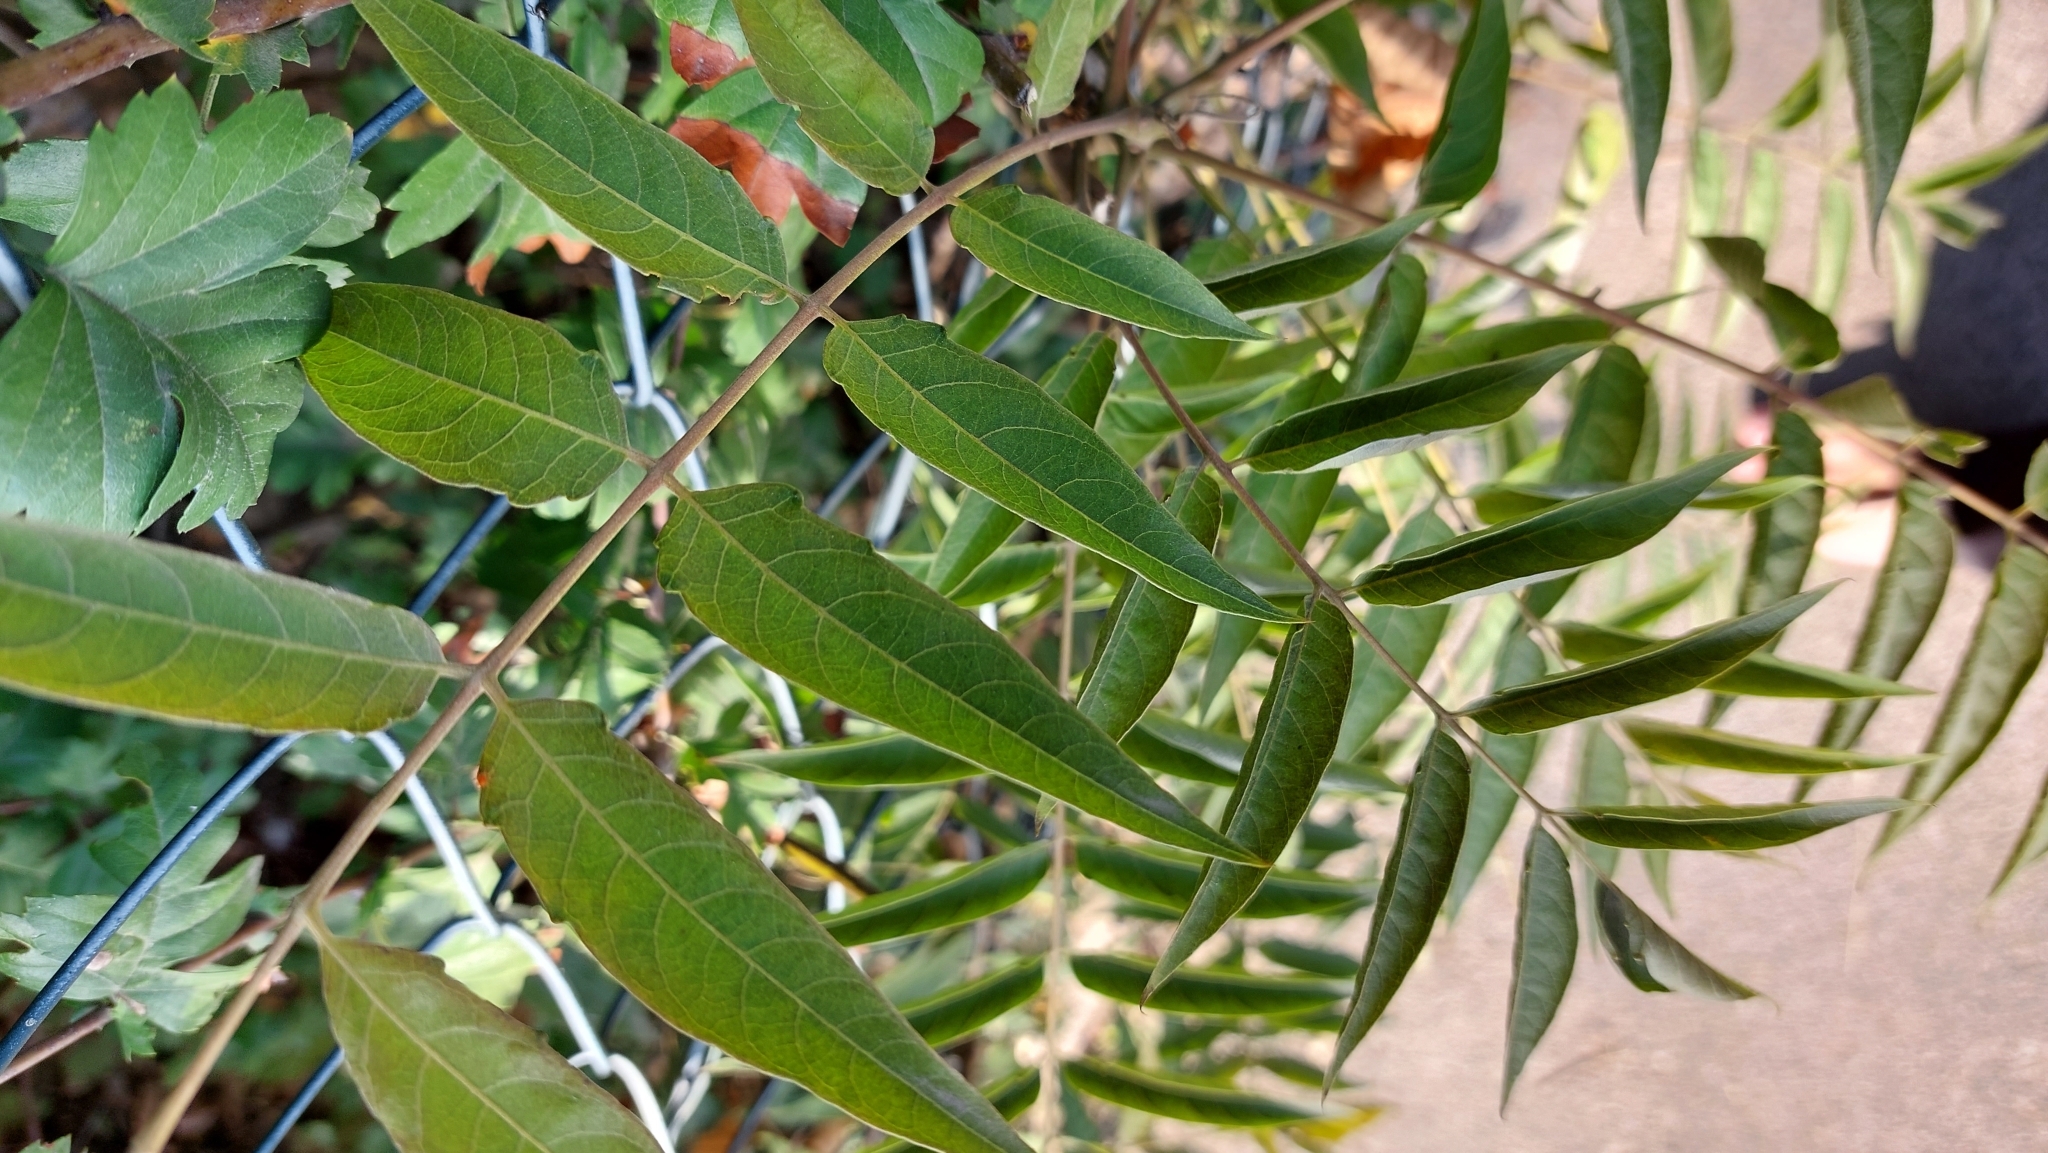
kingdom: Plantae
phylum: Tracheophyta
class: Magnoliopsida
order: Sapindales
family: Simaroubaceae
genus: Ailanthus
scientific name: Ailanthus altissima
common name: Tree-of-heaven
